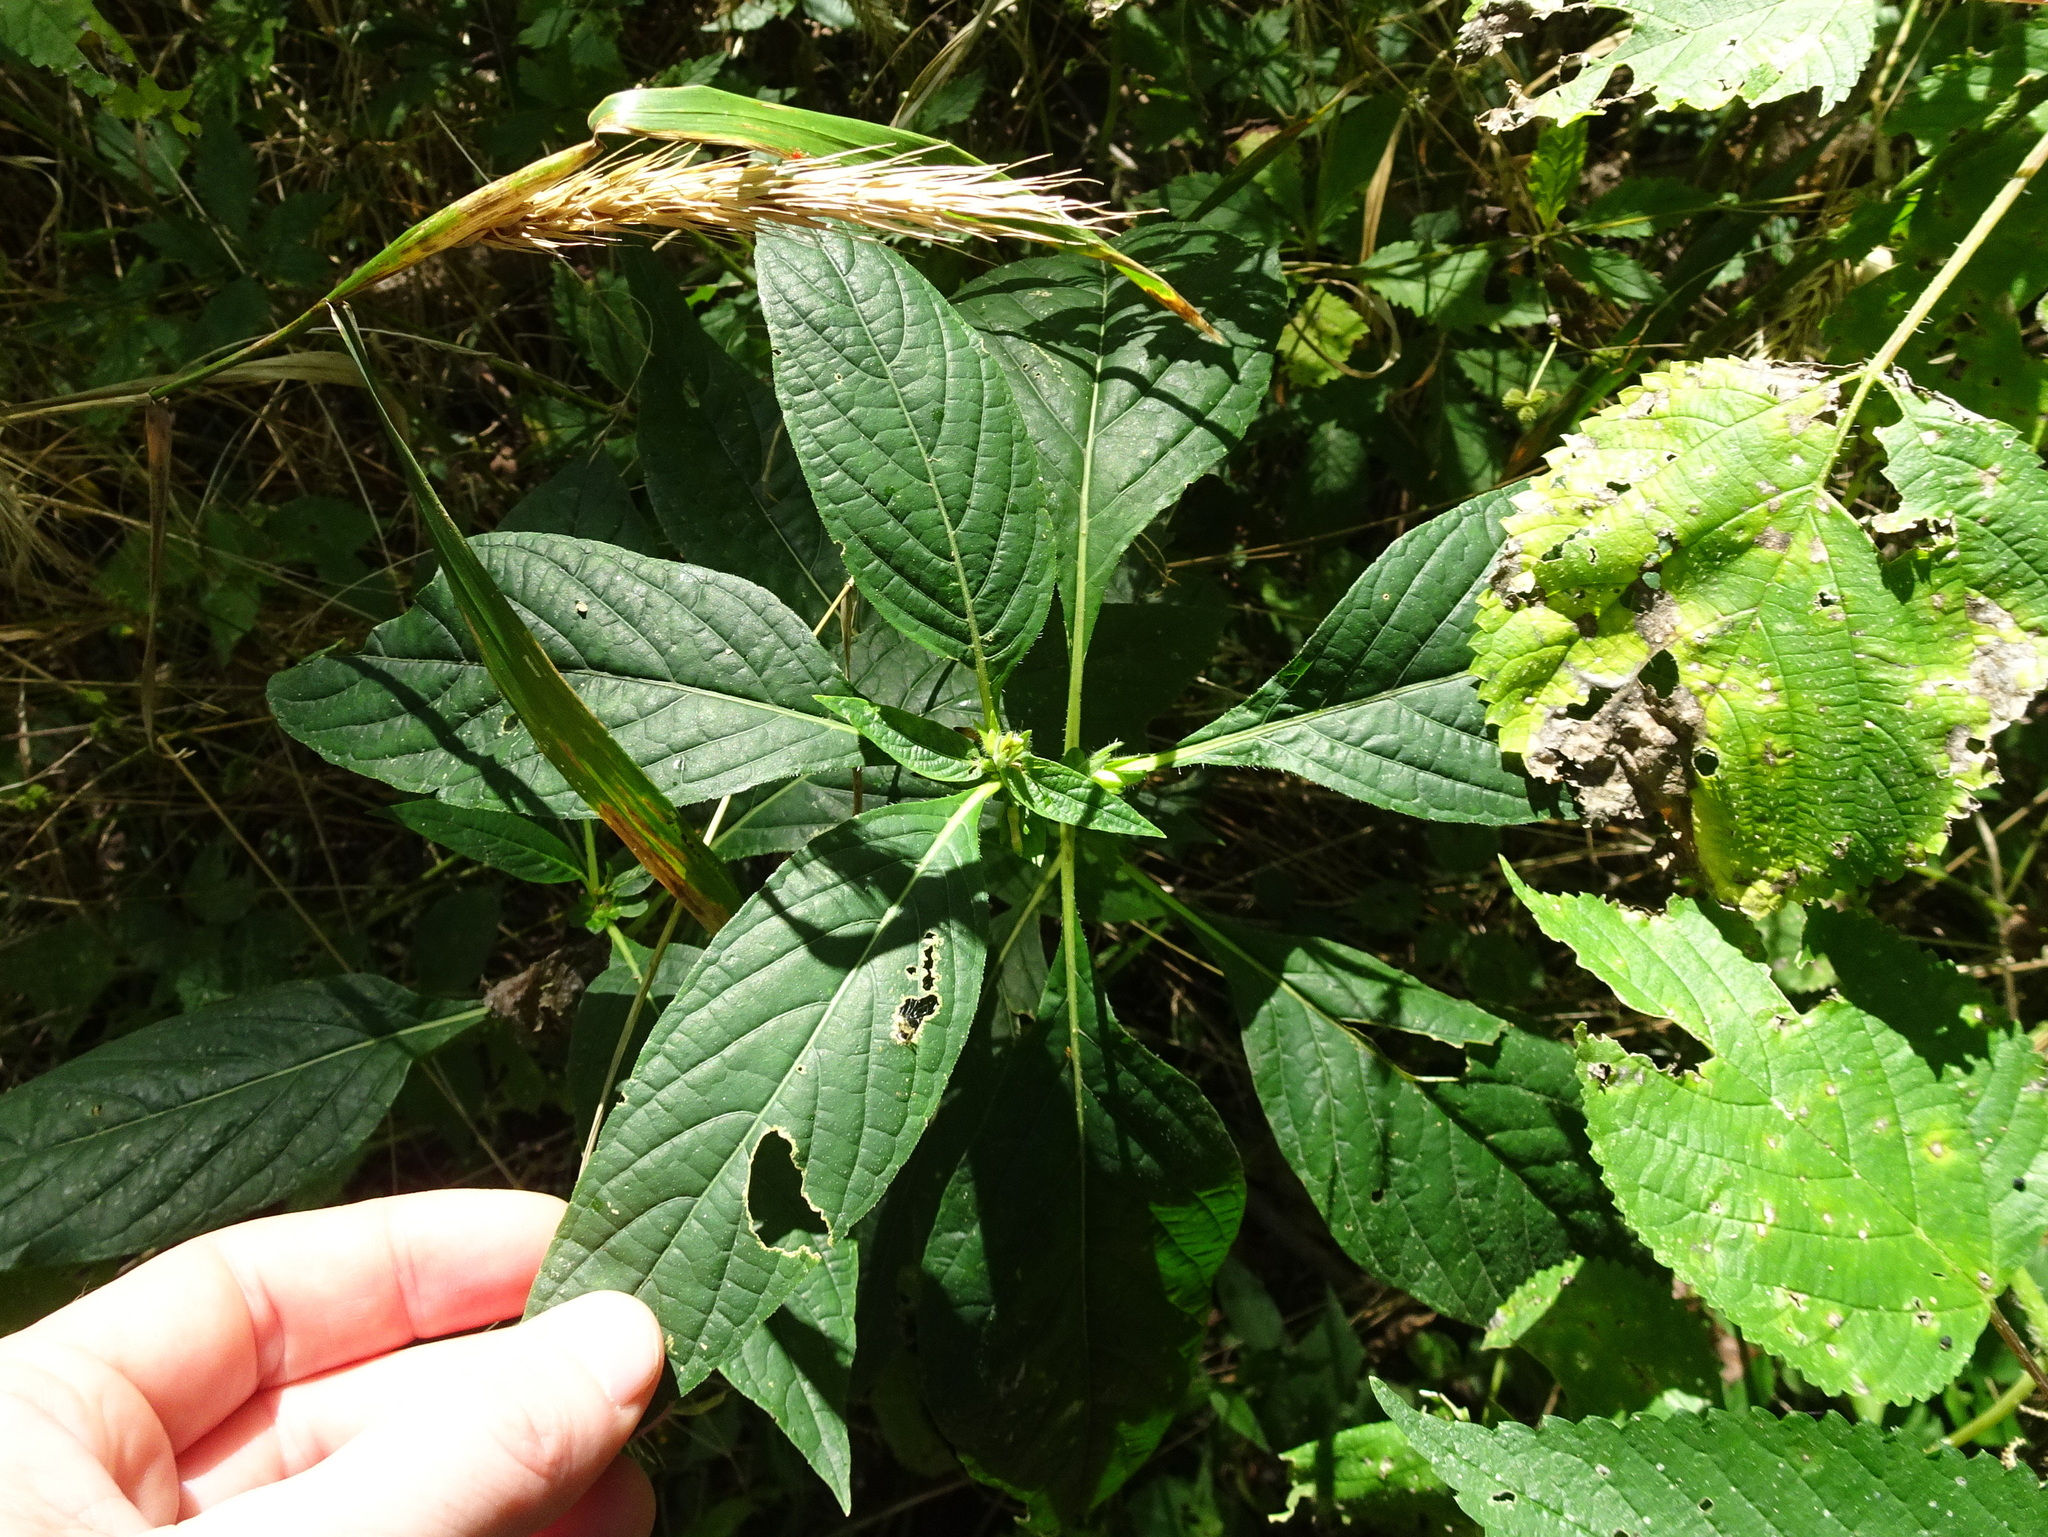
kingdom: Plantae
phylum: Tracheophyta
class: Magnoliopsida
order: Lamiales
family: Acanthaceae
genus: Ruellia
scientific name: Ruellia strepens
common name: Limestone wild petunia
